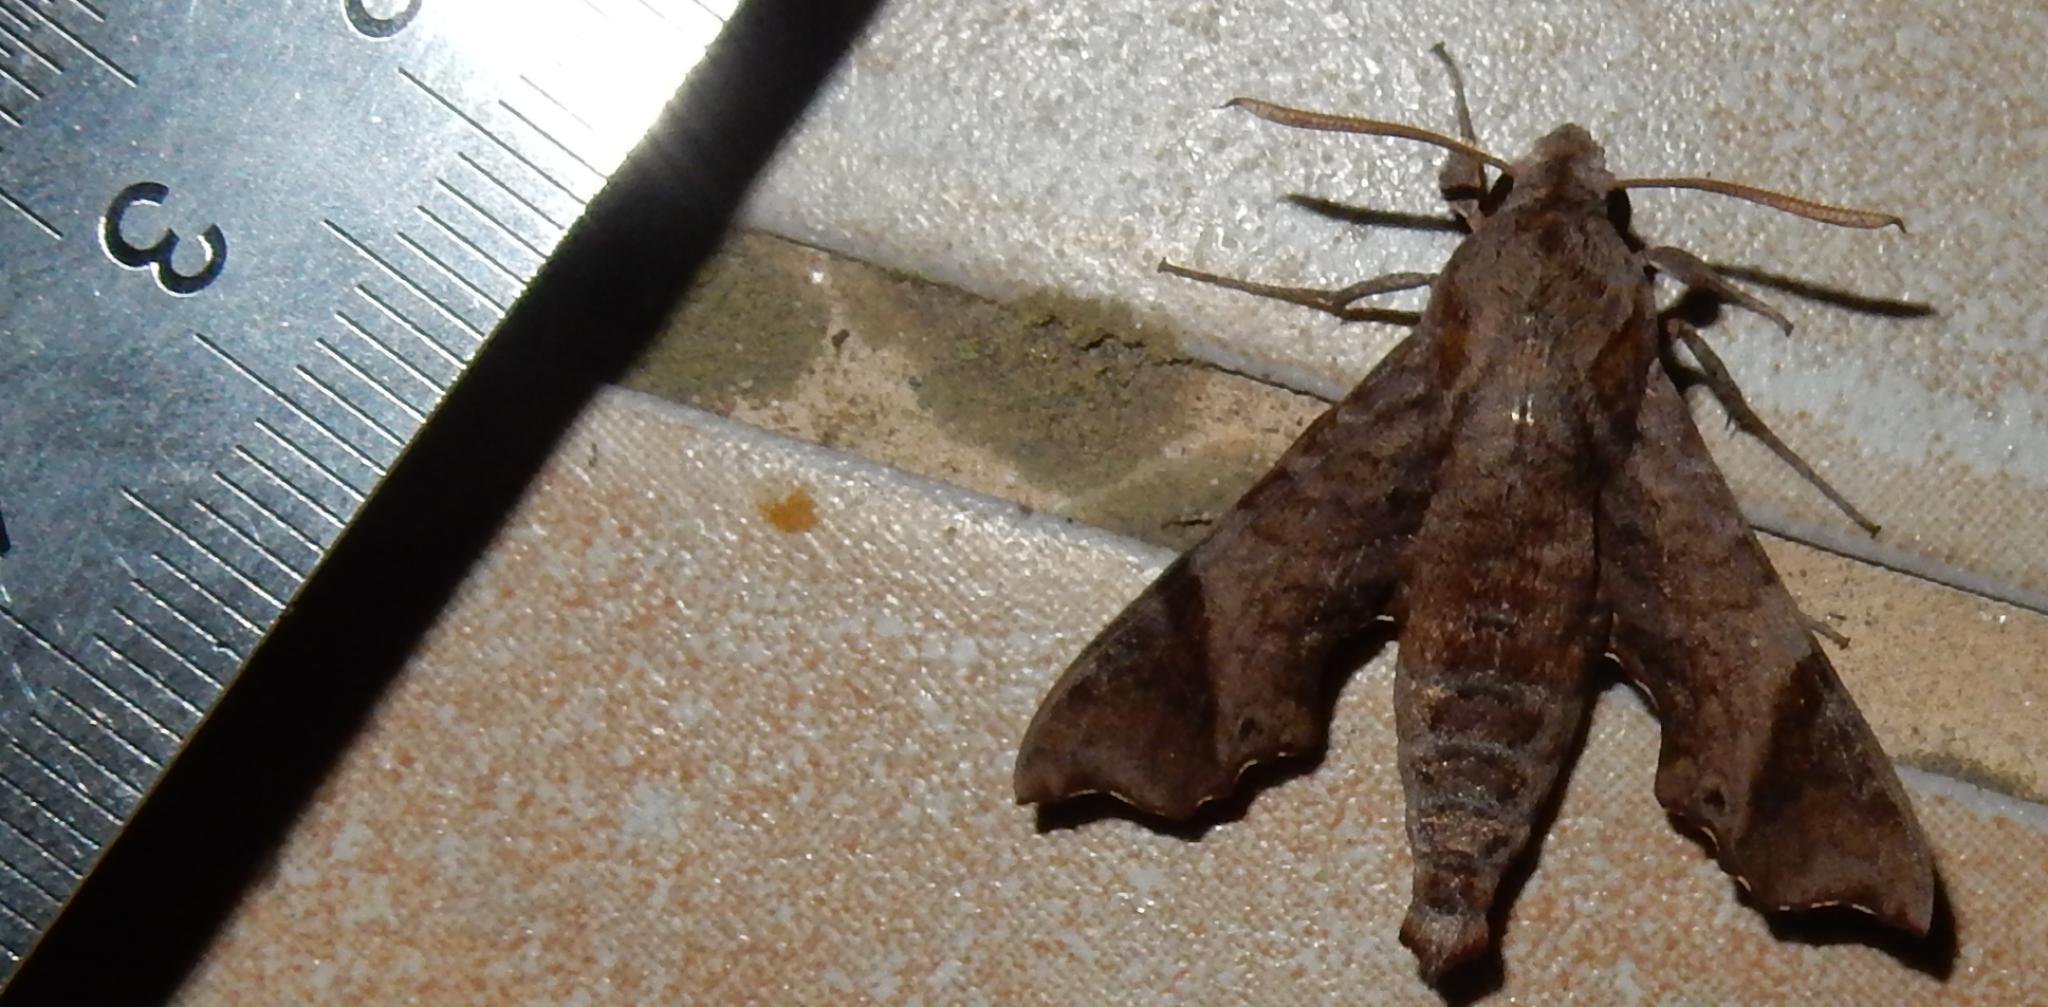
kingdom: Animalia
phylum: Arthropoda
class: Insecta
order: Lepidoptera
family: Sphingidae
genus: Temnora
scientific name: Temnora pylades
